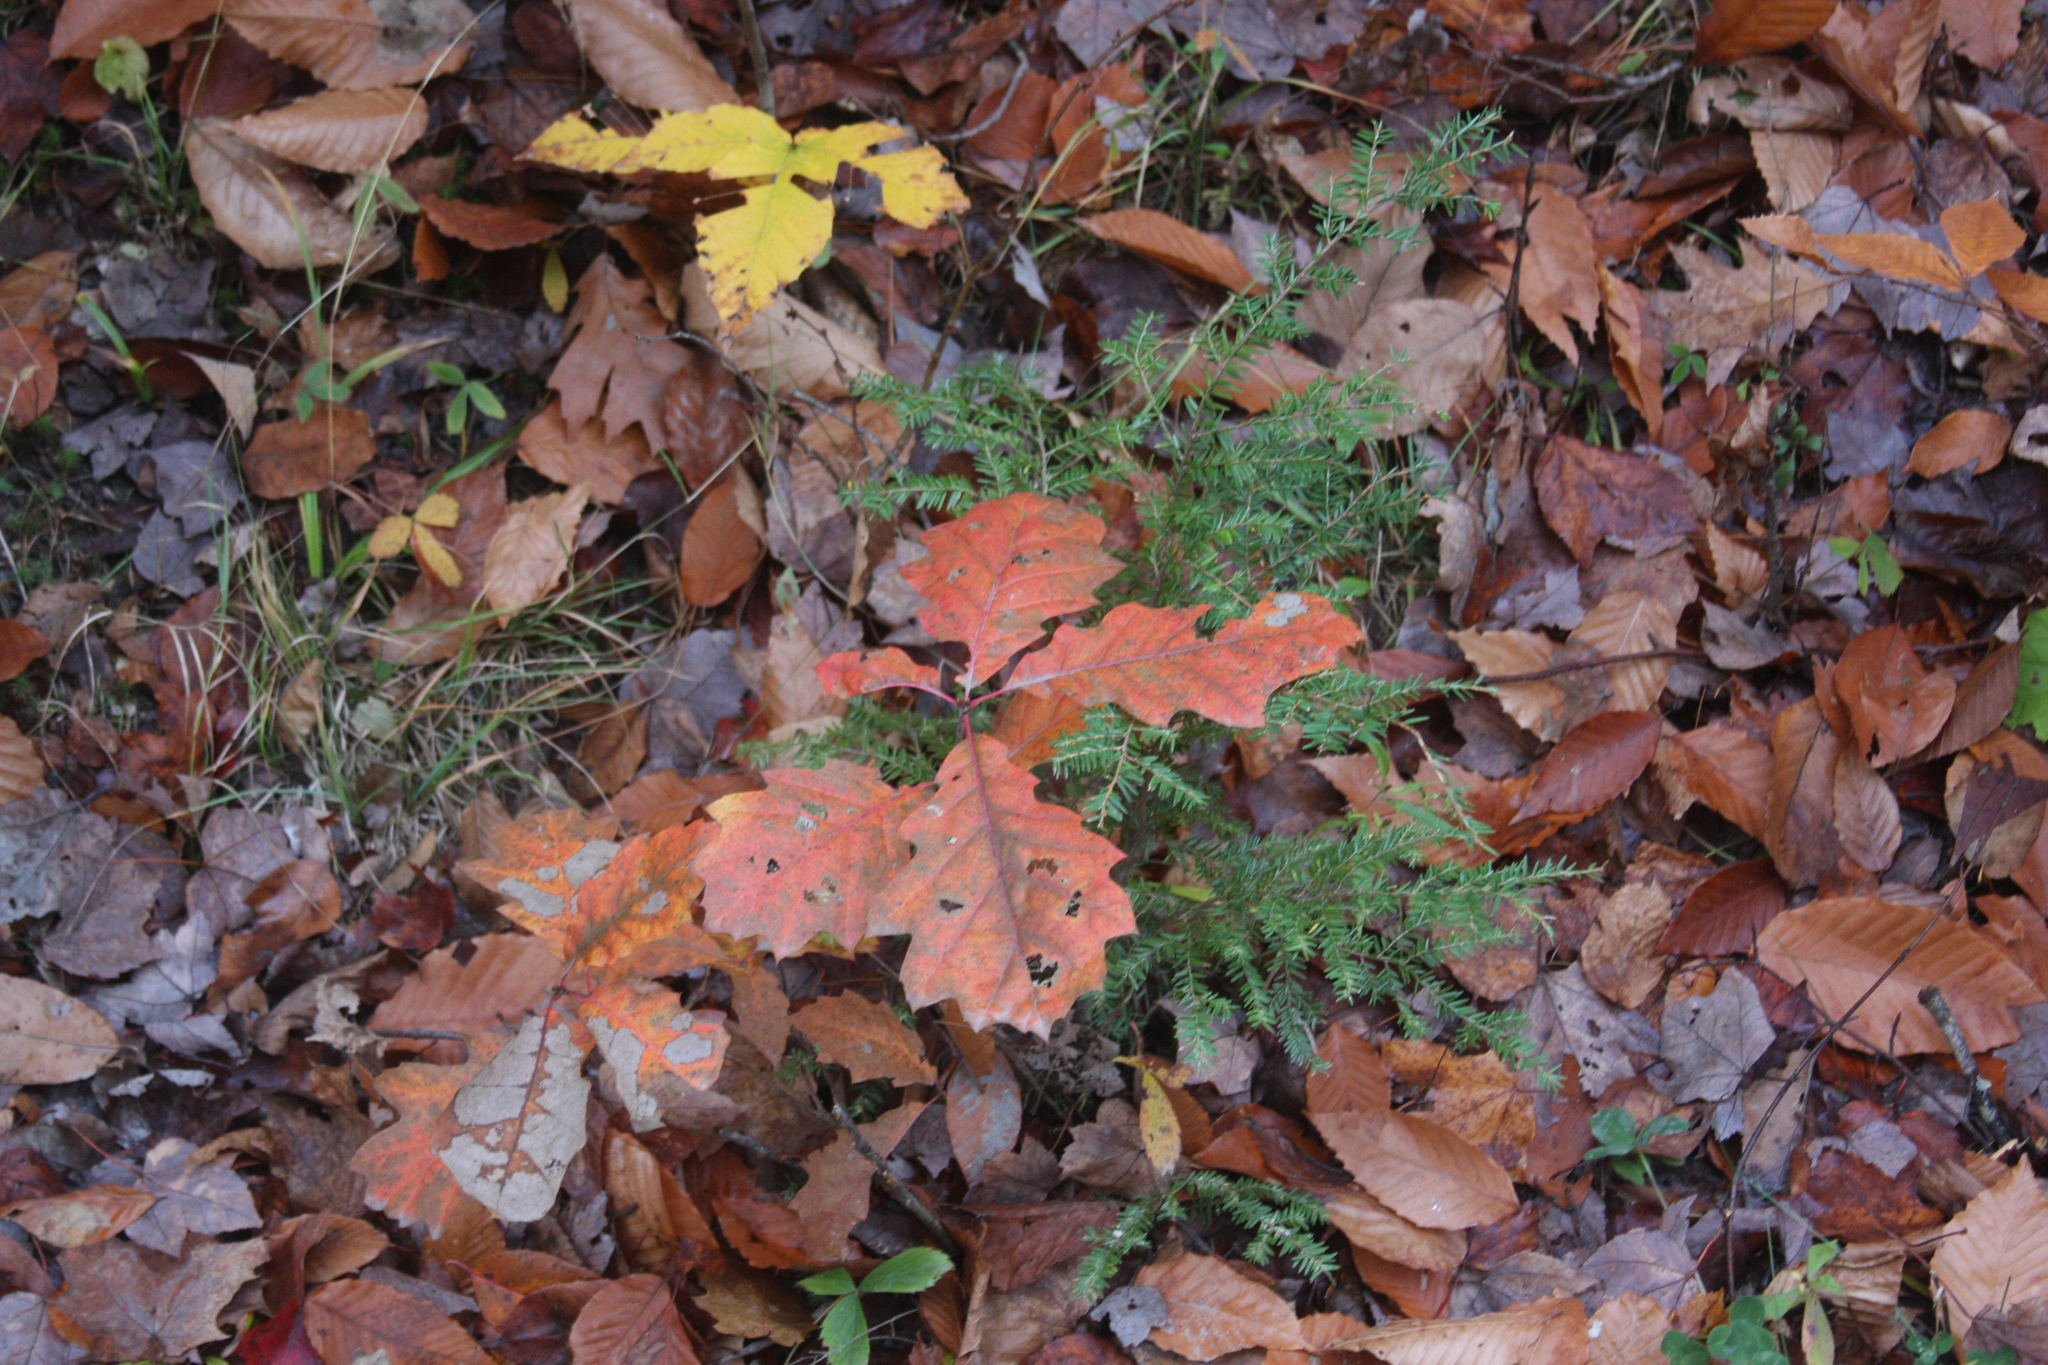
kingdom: Plantae
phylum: Tracheophyta
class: Pinopsida
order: Pinales
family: Pinaceae
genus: Tsuga
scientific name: Tsuga canadensis
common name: Eastern hemlock
